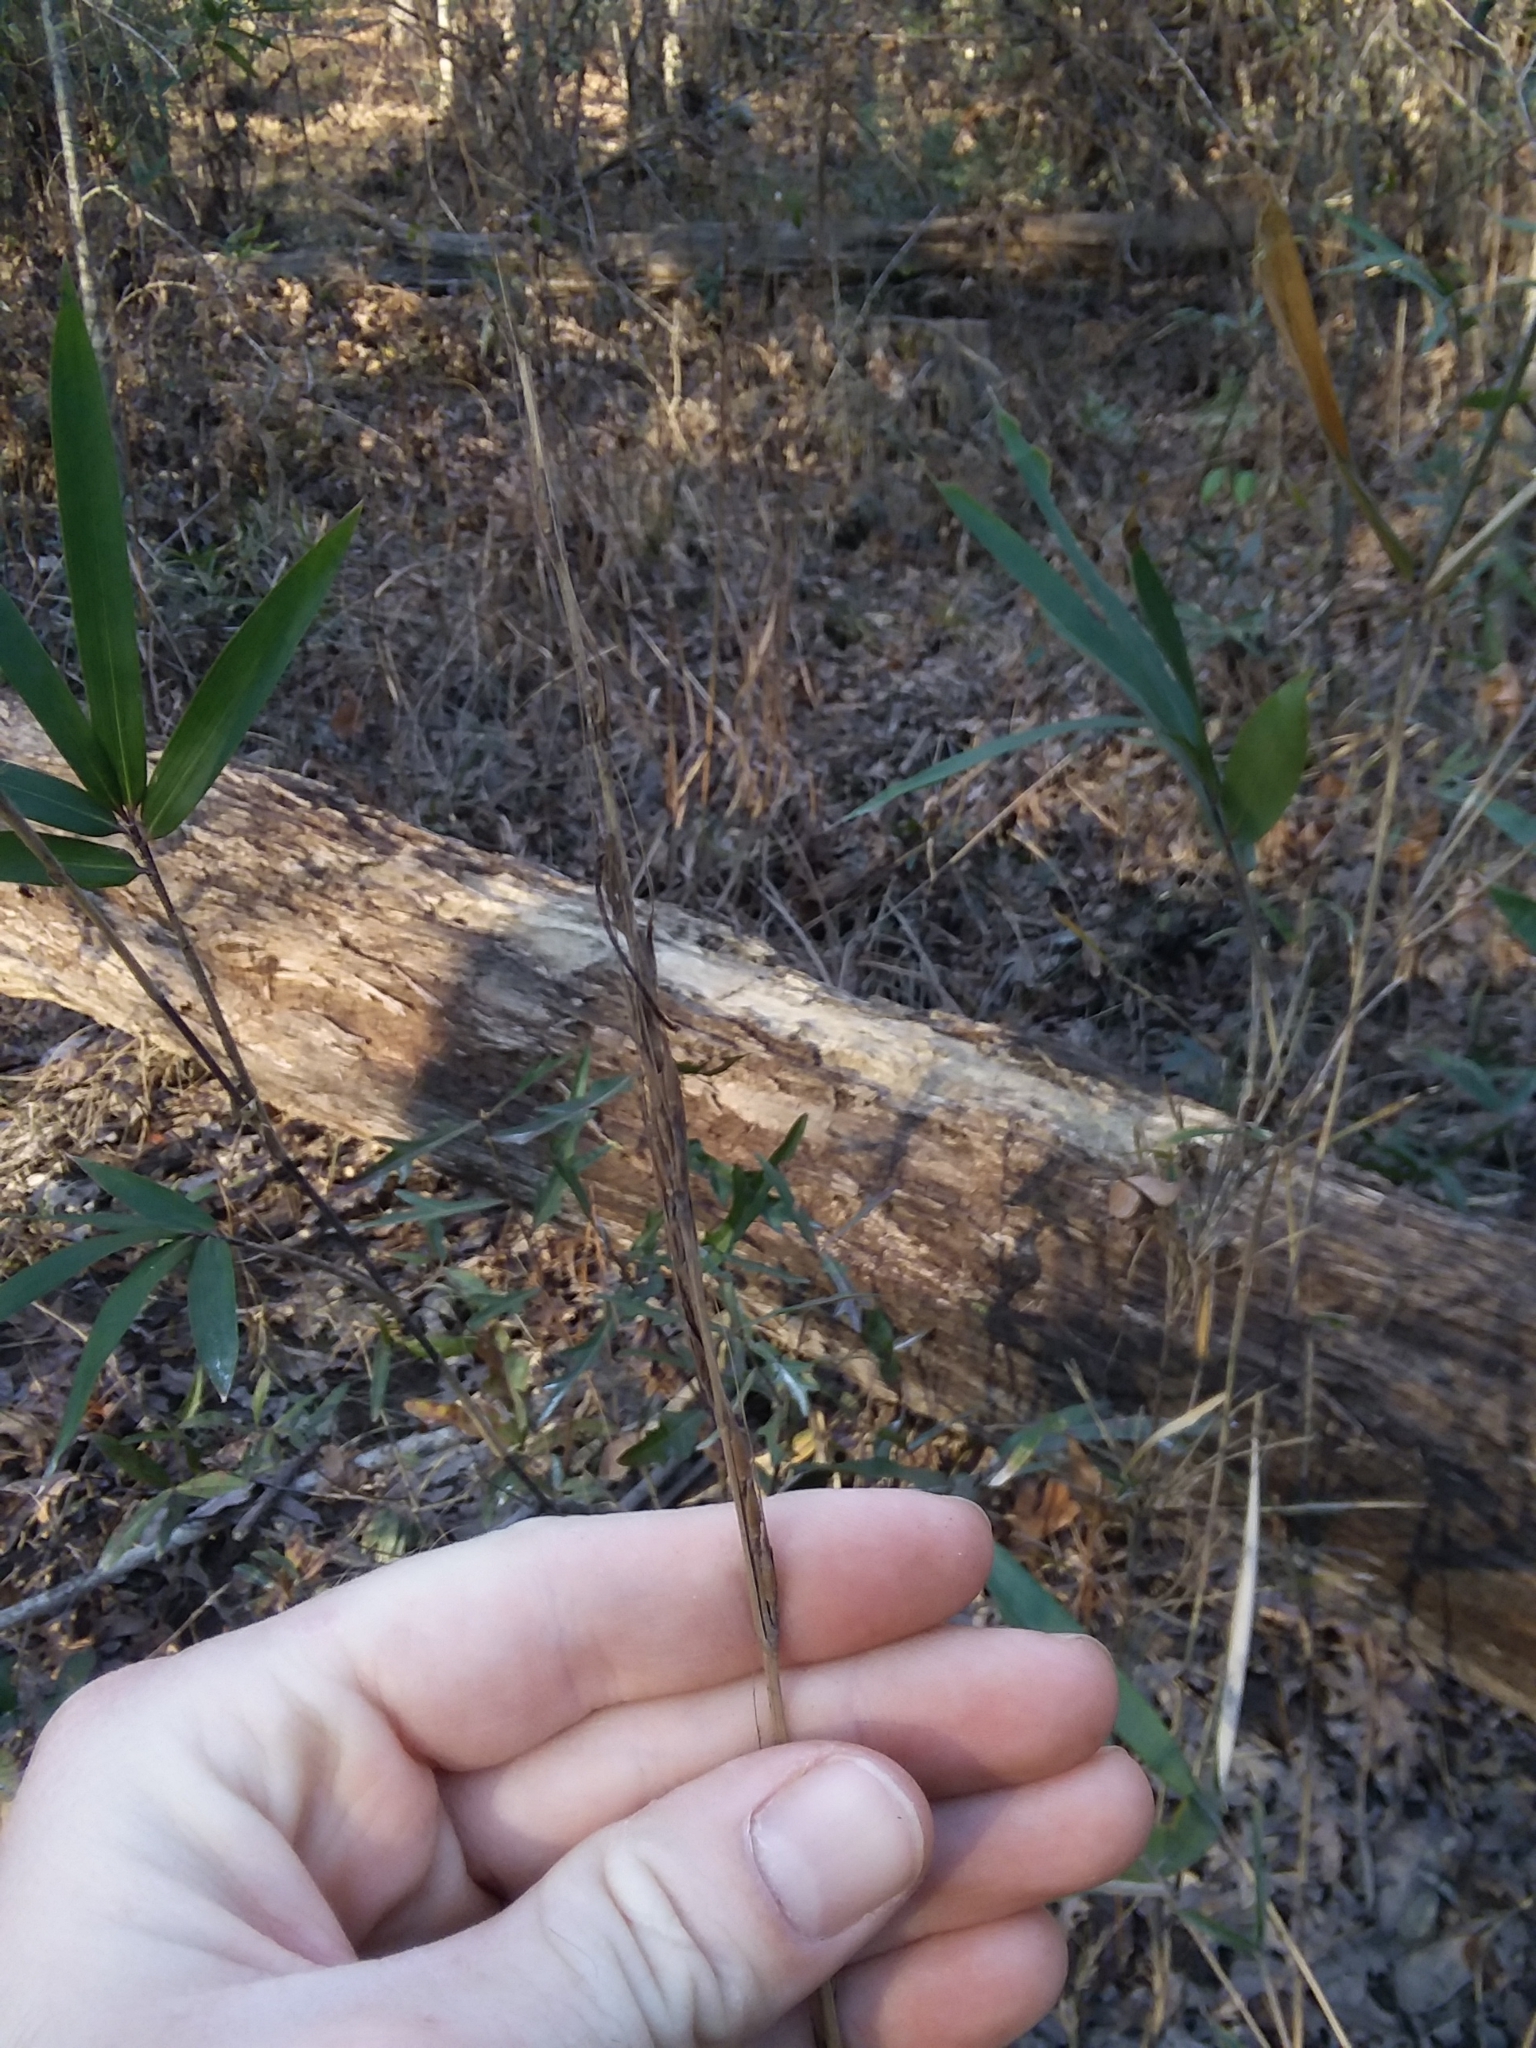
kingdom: Plantae
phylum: Tracheophyta
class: Liliopsida
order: Poales
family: Poaceae
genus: Erianthus
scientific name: Erianthus strictus
